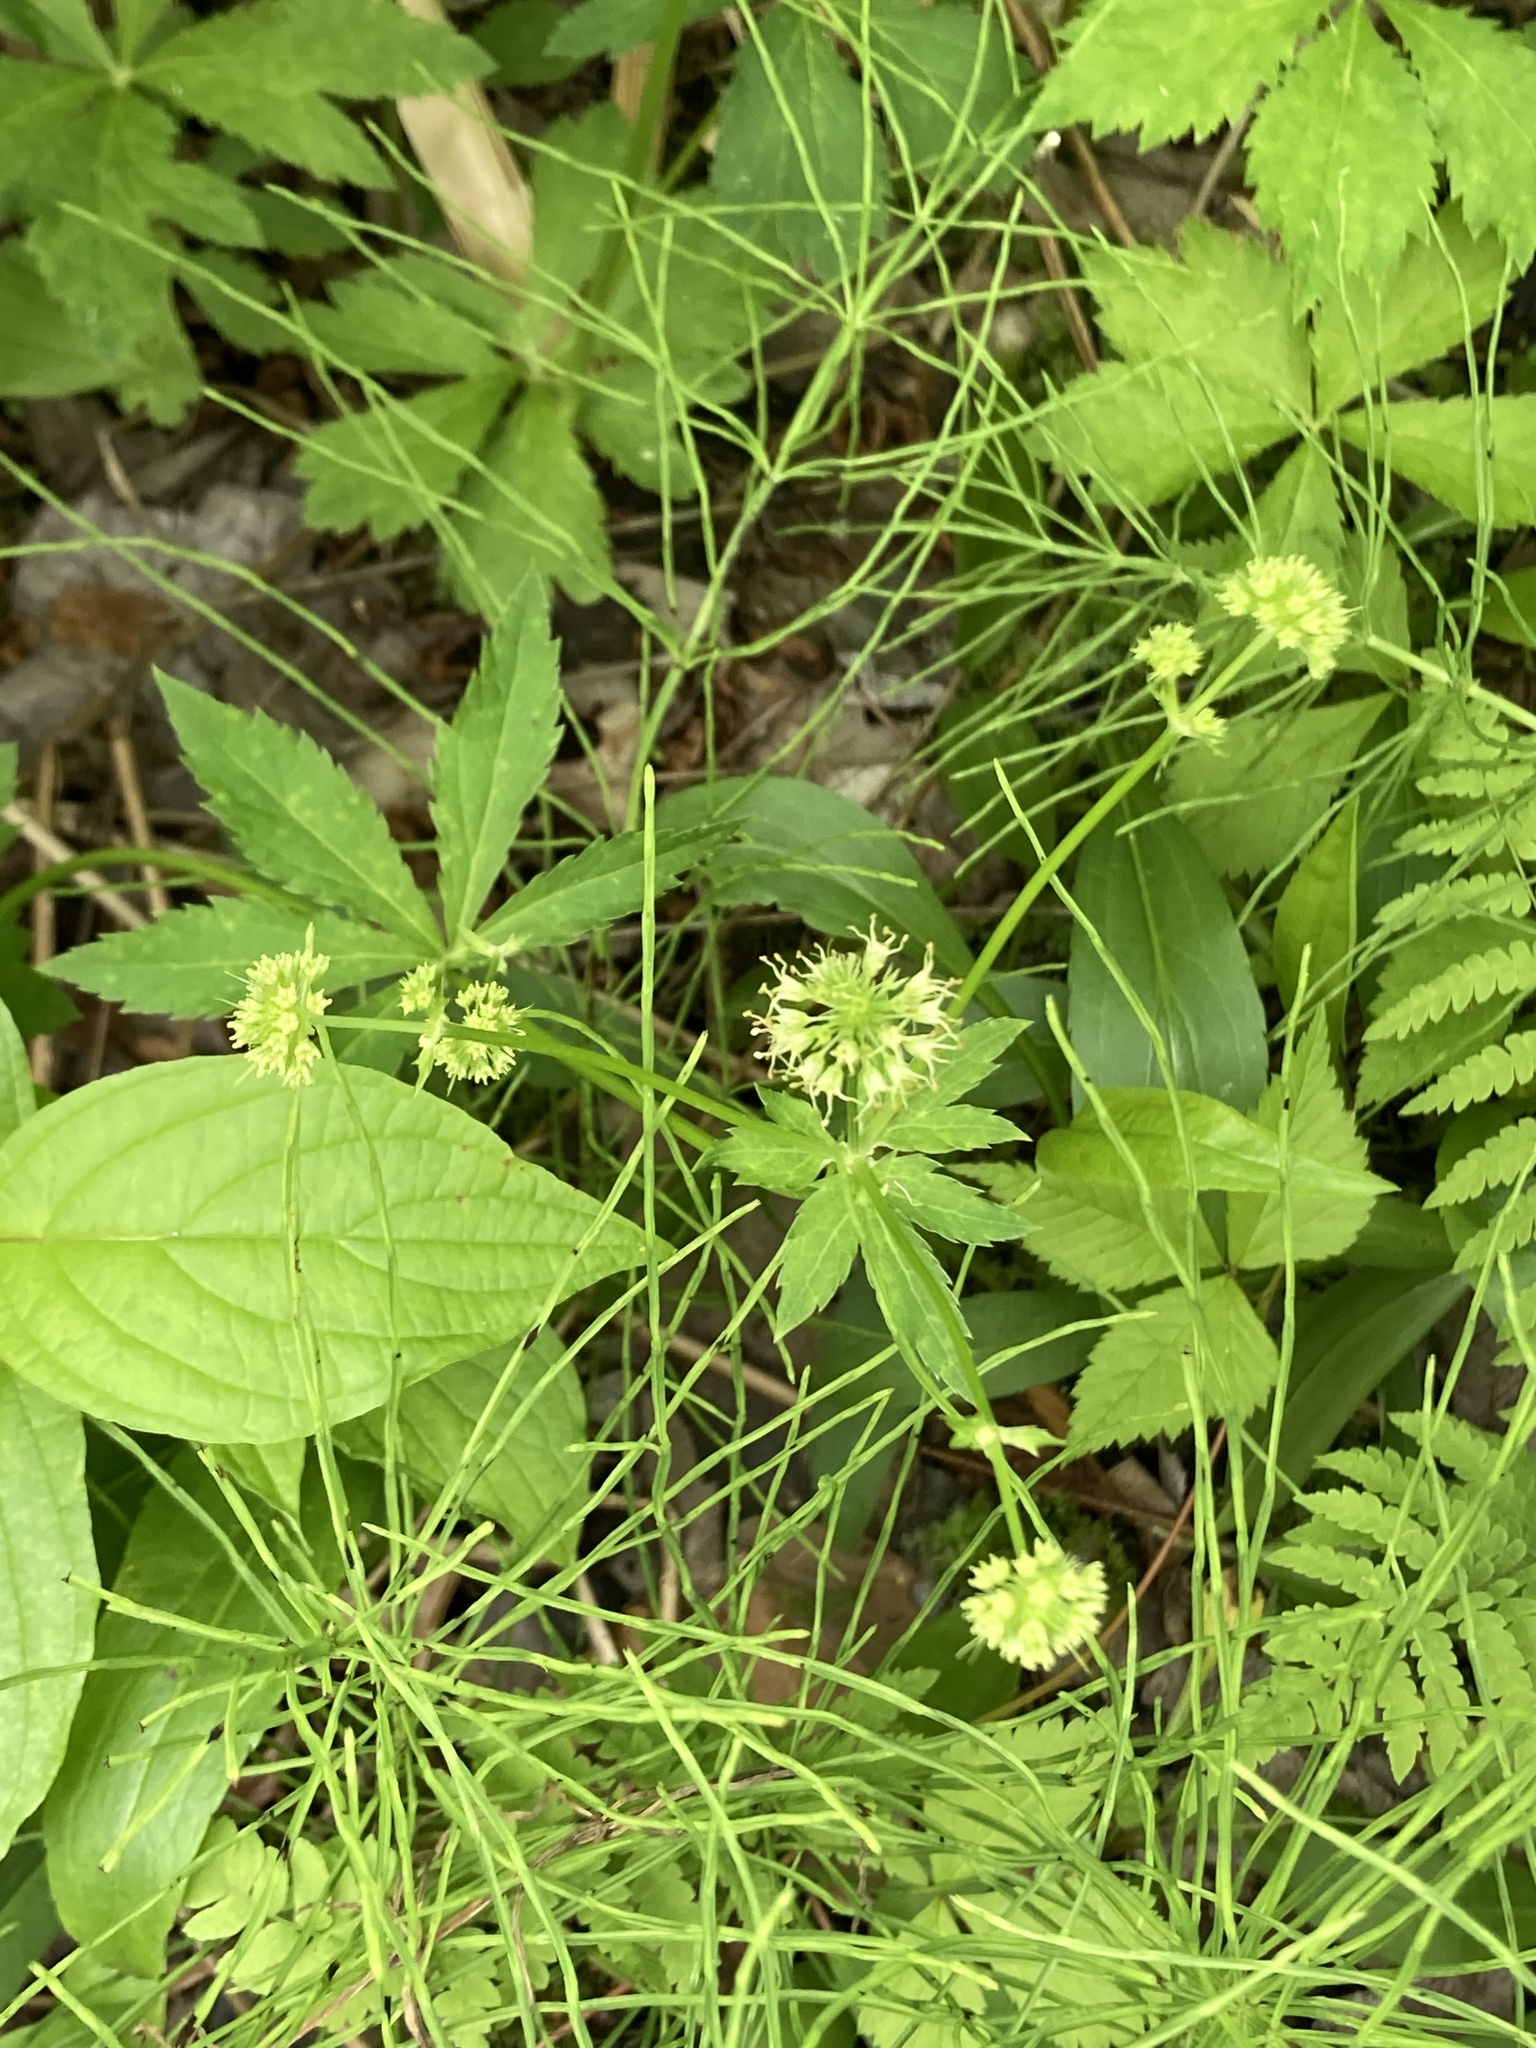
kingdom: Plantae
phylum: Tracheophyta
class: Magnoliopsida
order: Apiales
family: Apiaceae
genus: Sanicula
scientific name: Sanicula marilandica
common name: Black snakeroot
